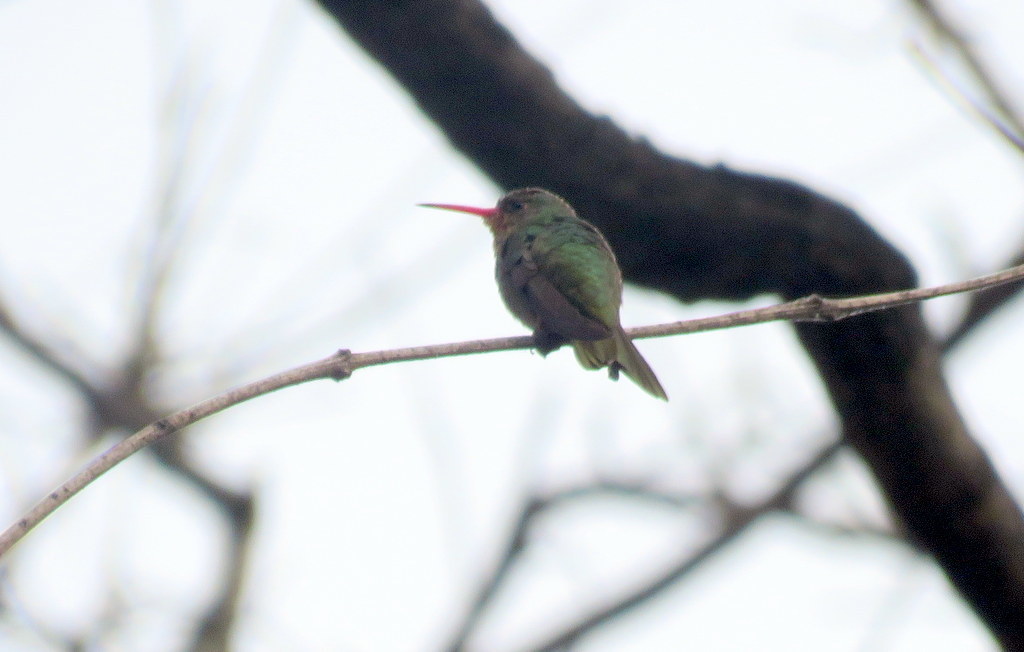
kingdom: Animalia
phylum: Chordata
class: Aves
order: Apodiformes
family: Trochilidae
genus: Hylocharis
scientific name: Hylocharis chrysura
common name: Gilded sapphire
